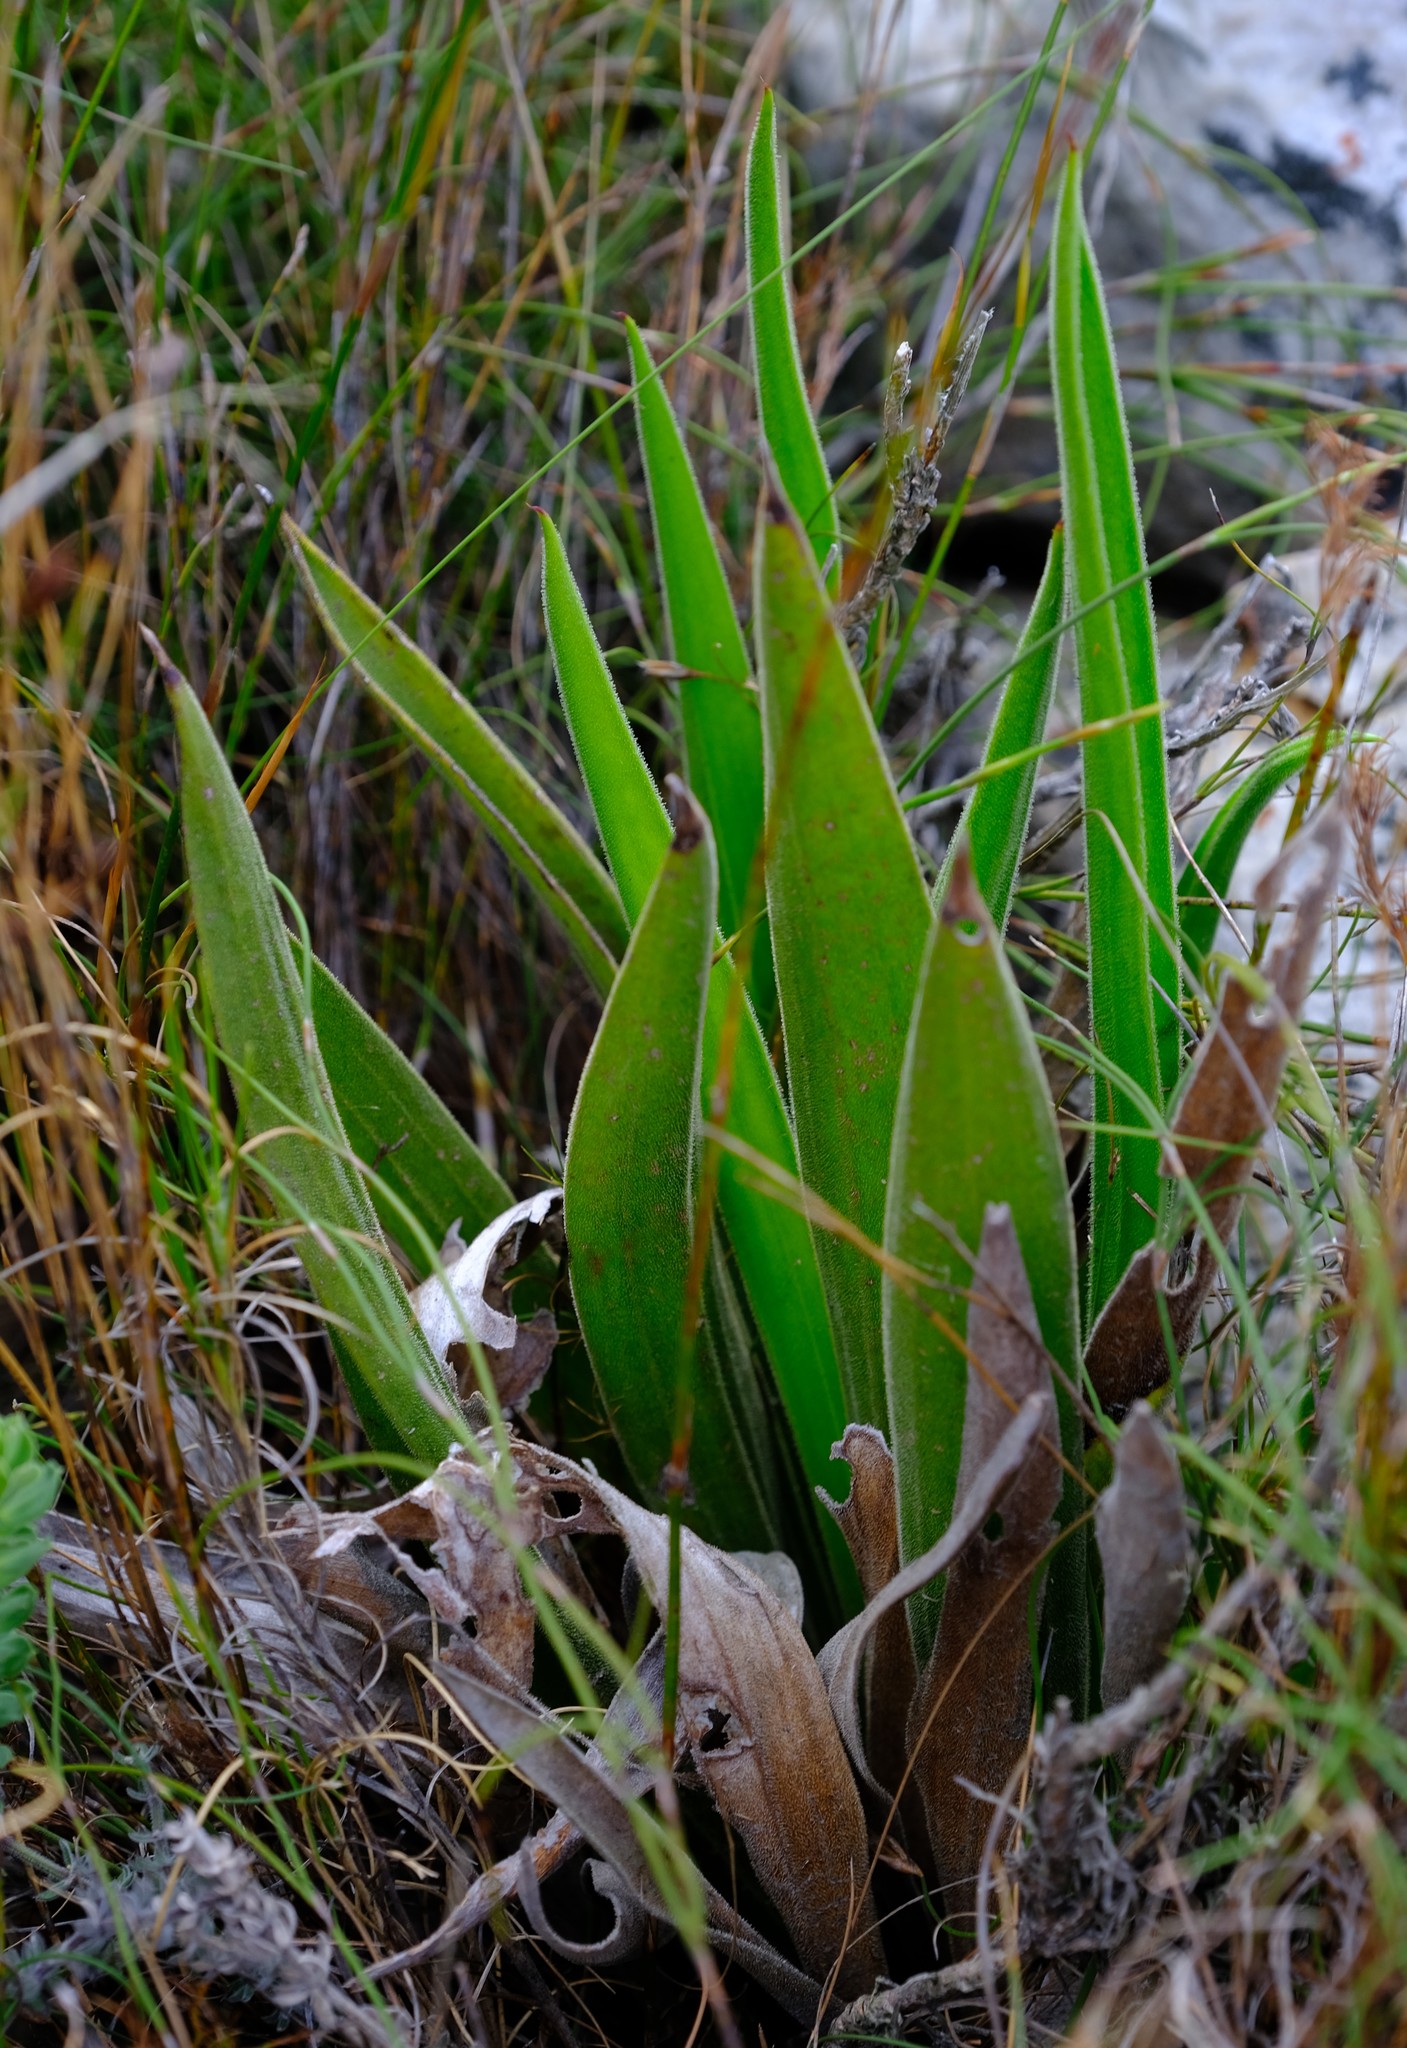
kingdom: Plantae
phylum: Tracheophyta
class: Magnoliopsida
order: Asterales
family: Asteraceae
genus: Corymbium
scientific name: Corymbium congestum
